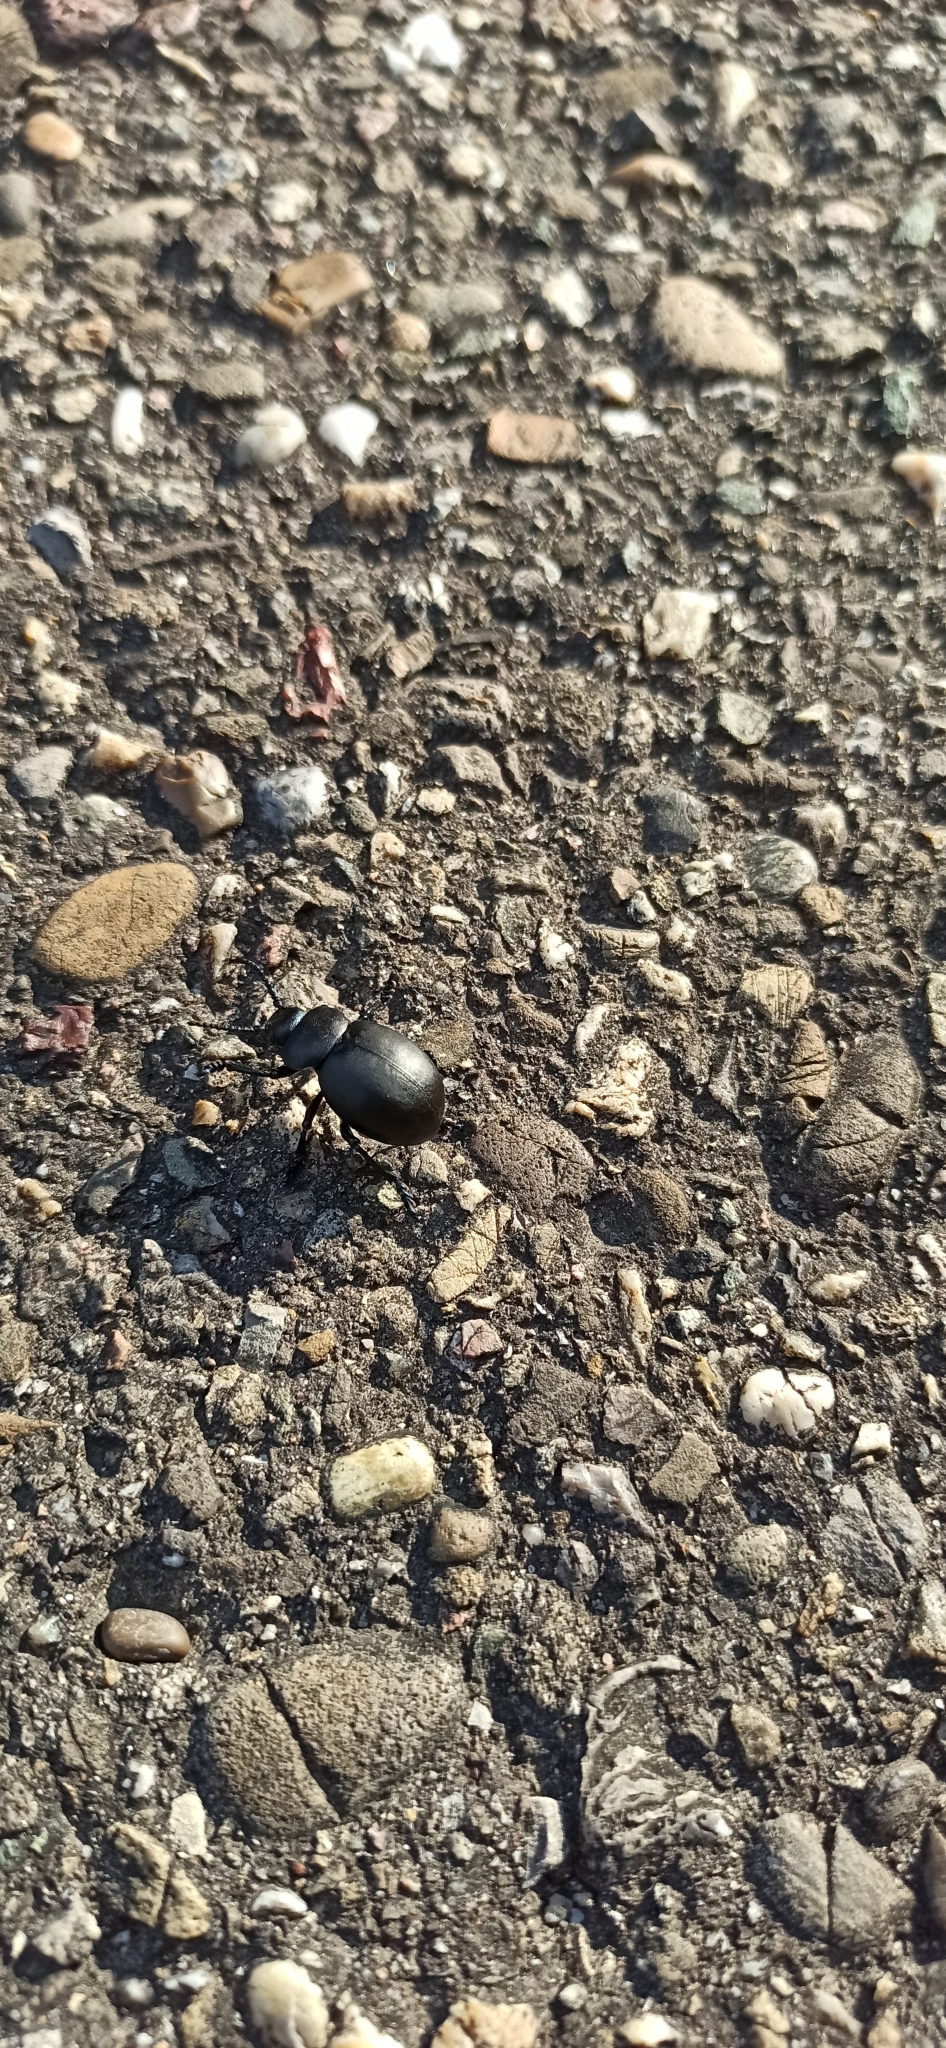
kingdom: Animalia
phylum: Arthropoda
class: Insecta
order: Coleoptera
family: Chrysomelidae
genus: Timarcha
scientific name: Timarcha tenebricosa
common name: Bloody-nosed beetle
